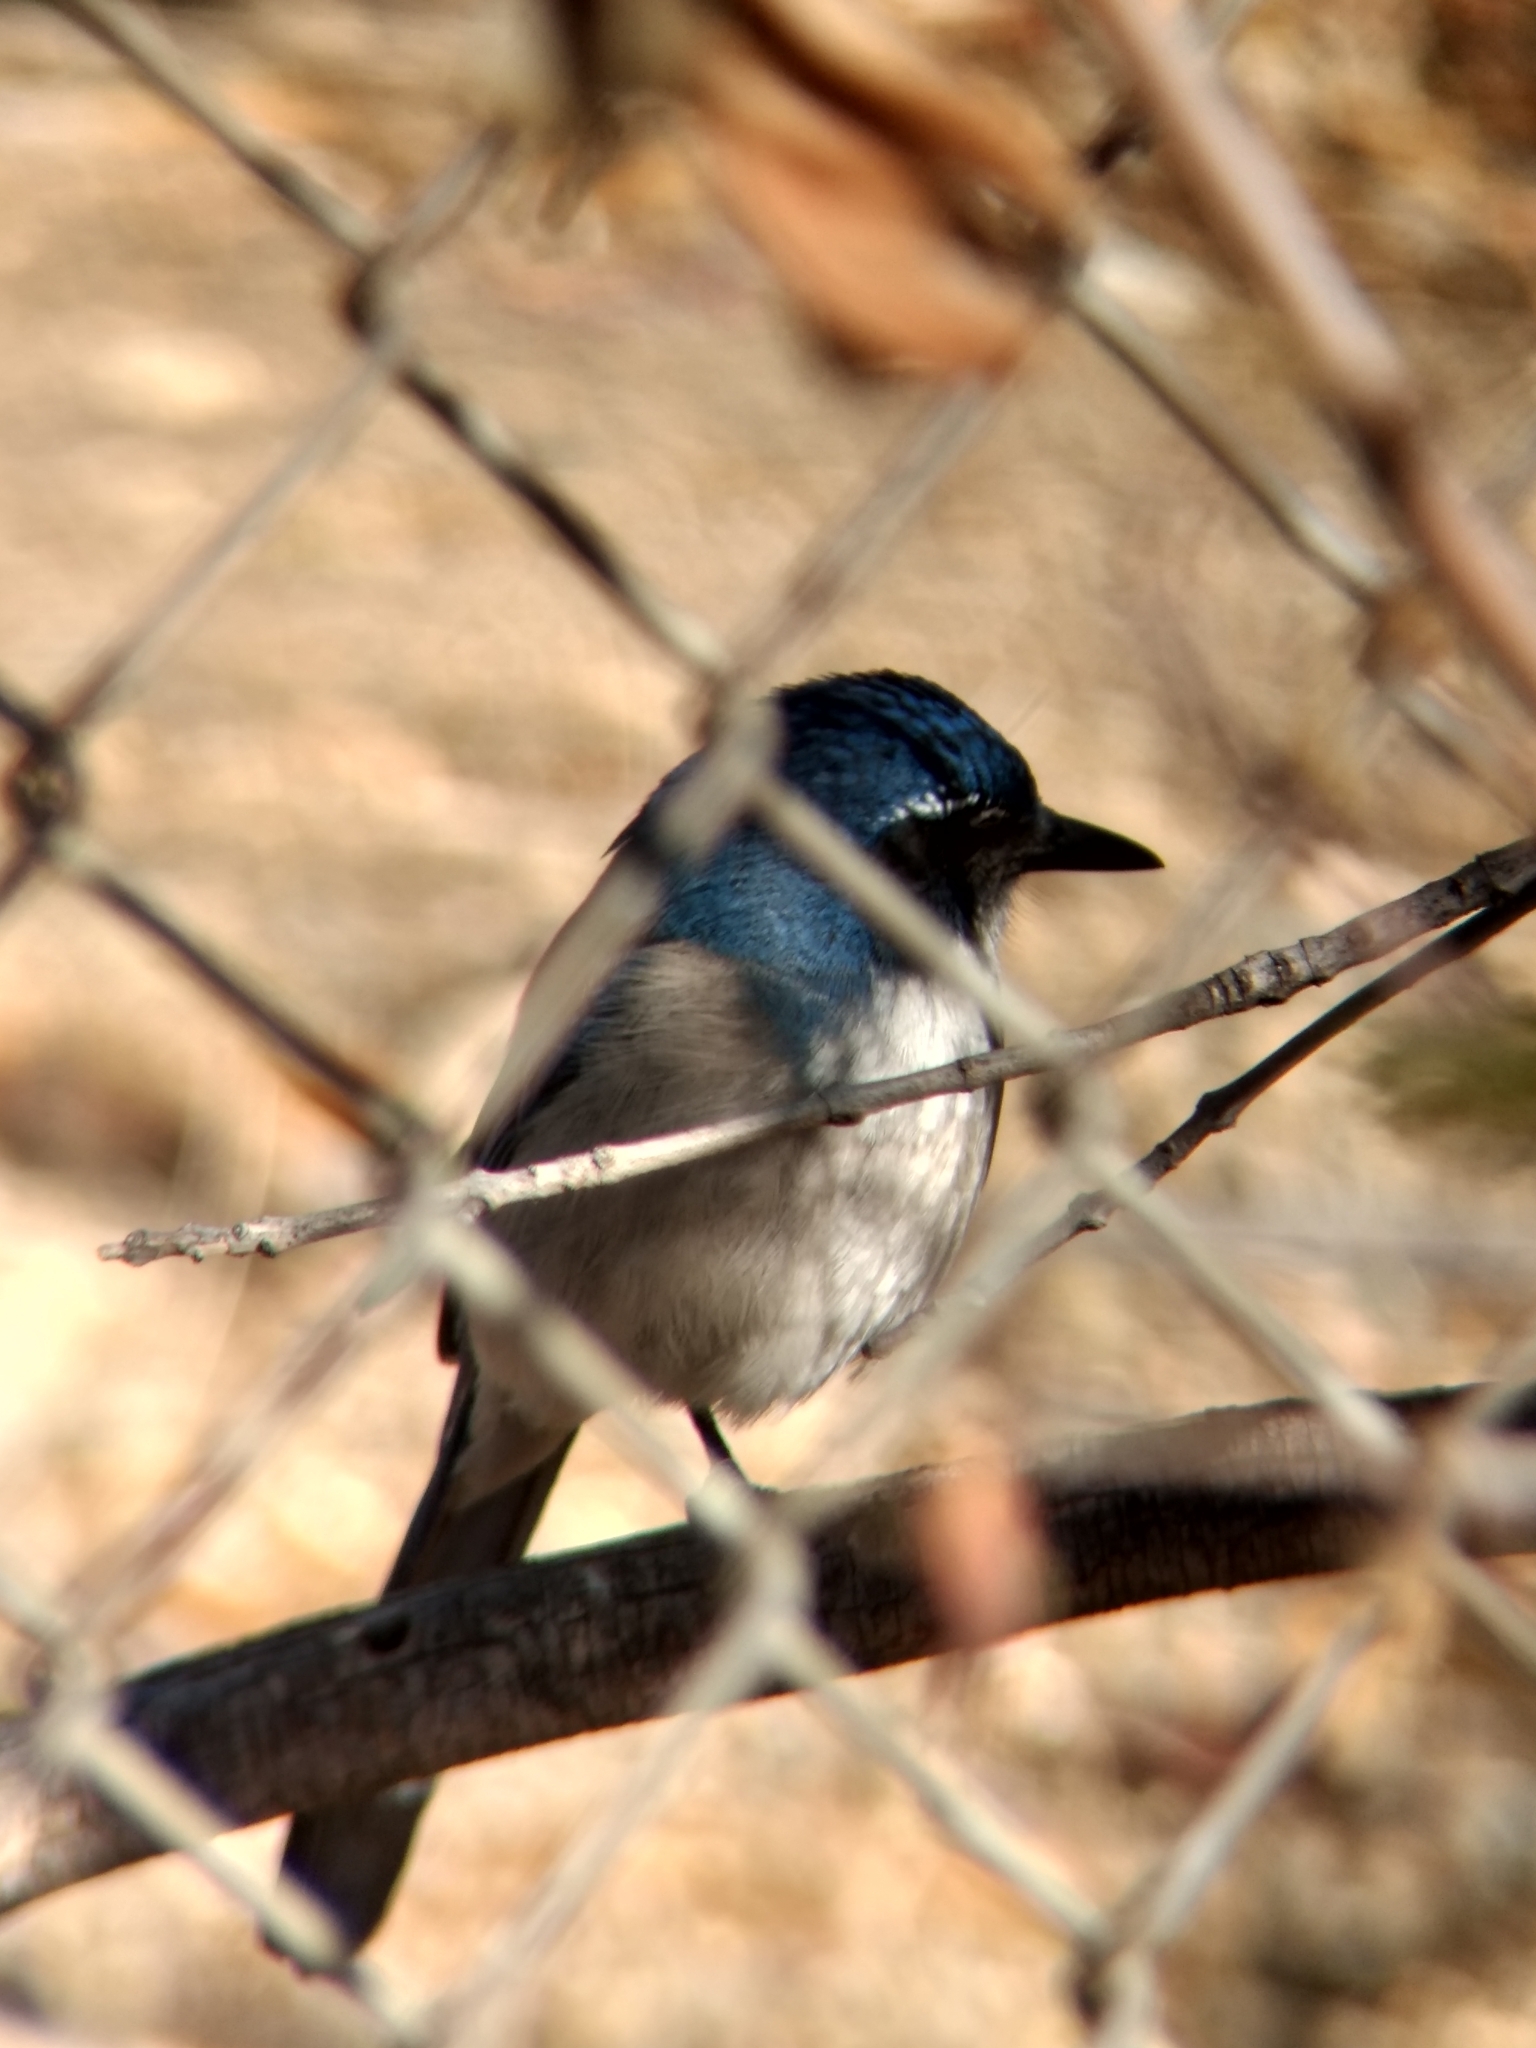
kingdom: Animalia
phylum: Chordata
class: Aves
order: Passeriformes
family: Corvidae
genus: Aphelocoma
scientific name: Aphelocoma californica
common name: California scrub-jay
